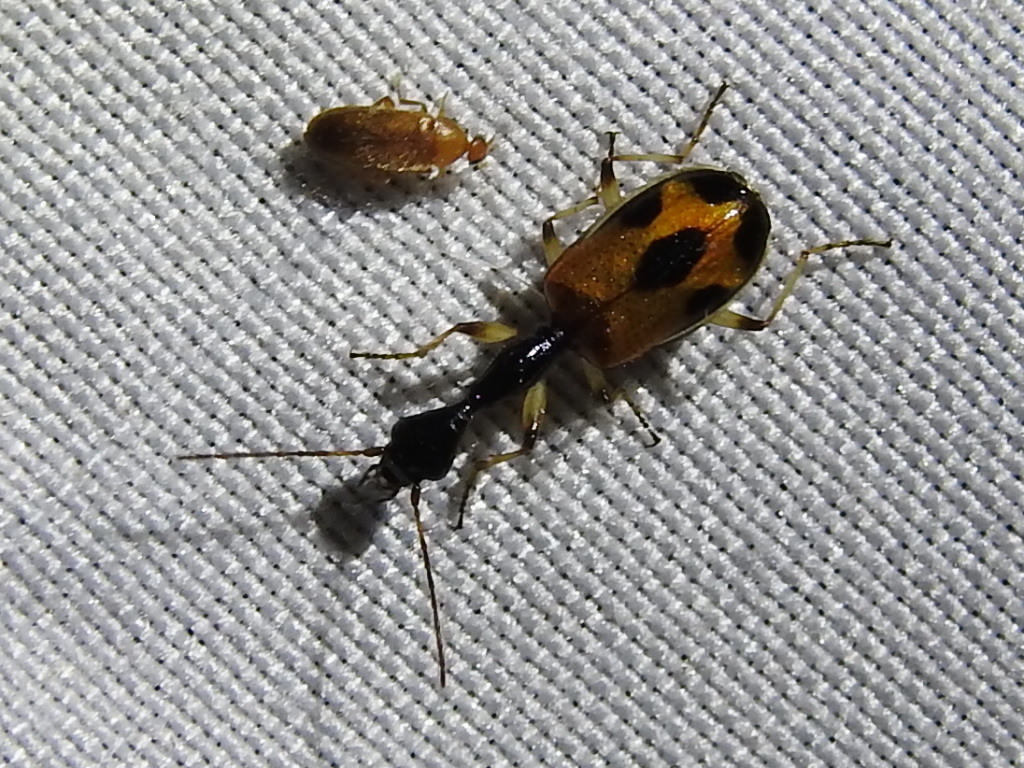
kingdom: Animalia
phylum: Arthropoda
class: Insecta
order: Coleoptera
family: Carabidae
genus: Colliuris
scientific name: Colliuris pensylvanica
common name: Long-necked ground beetle
